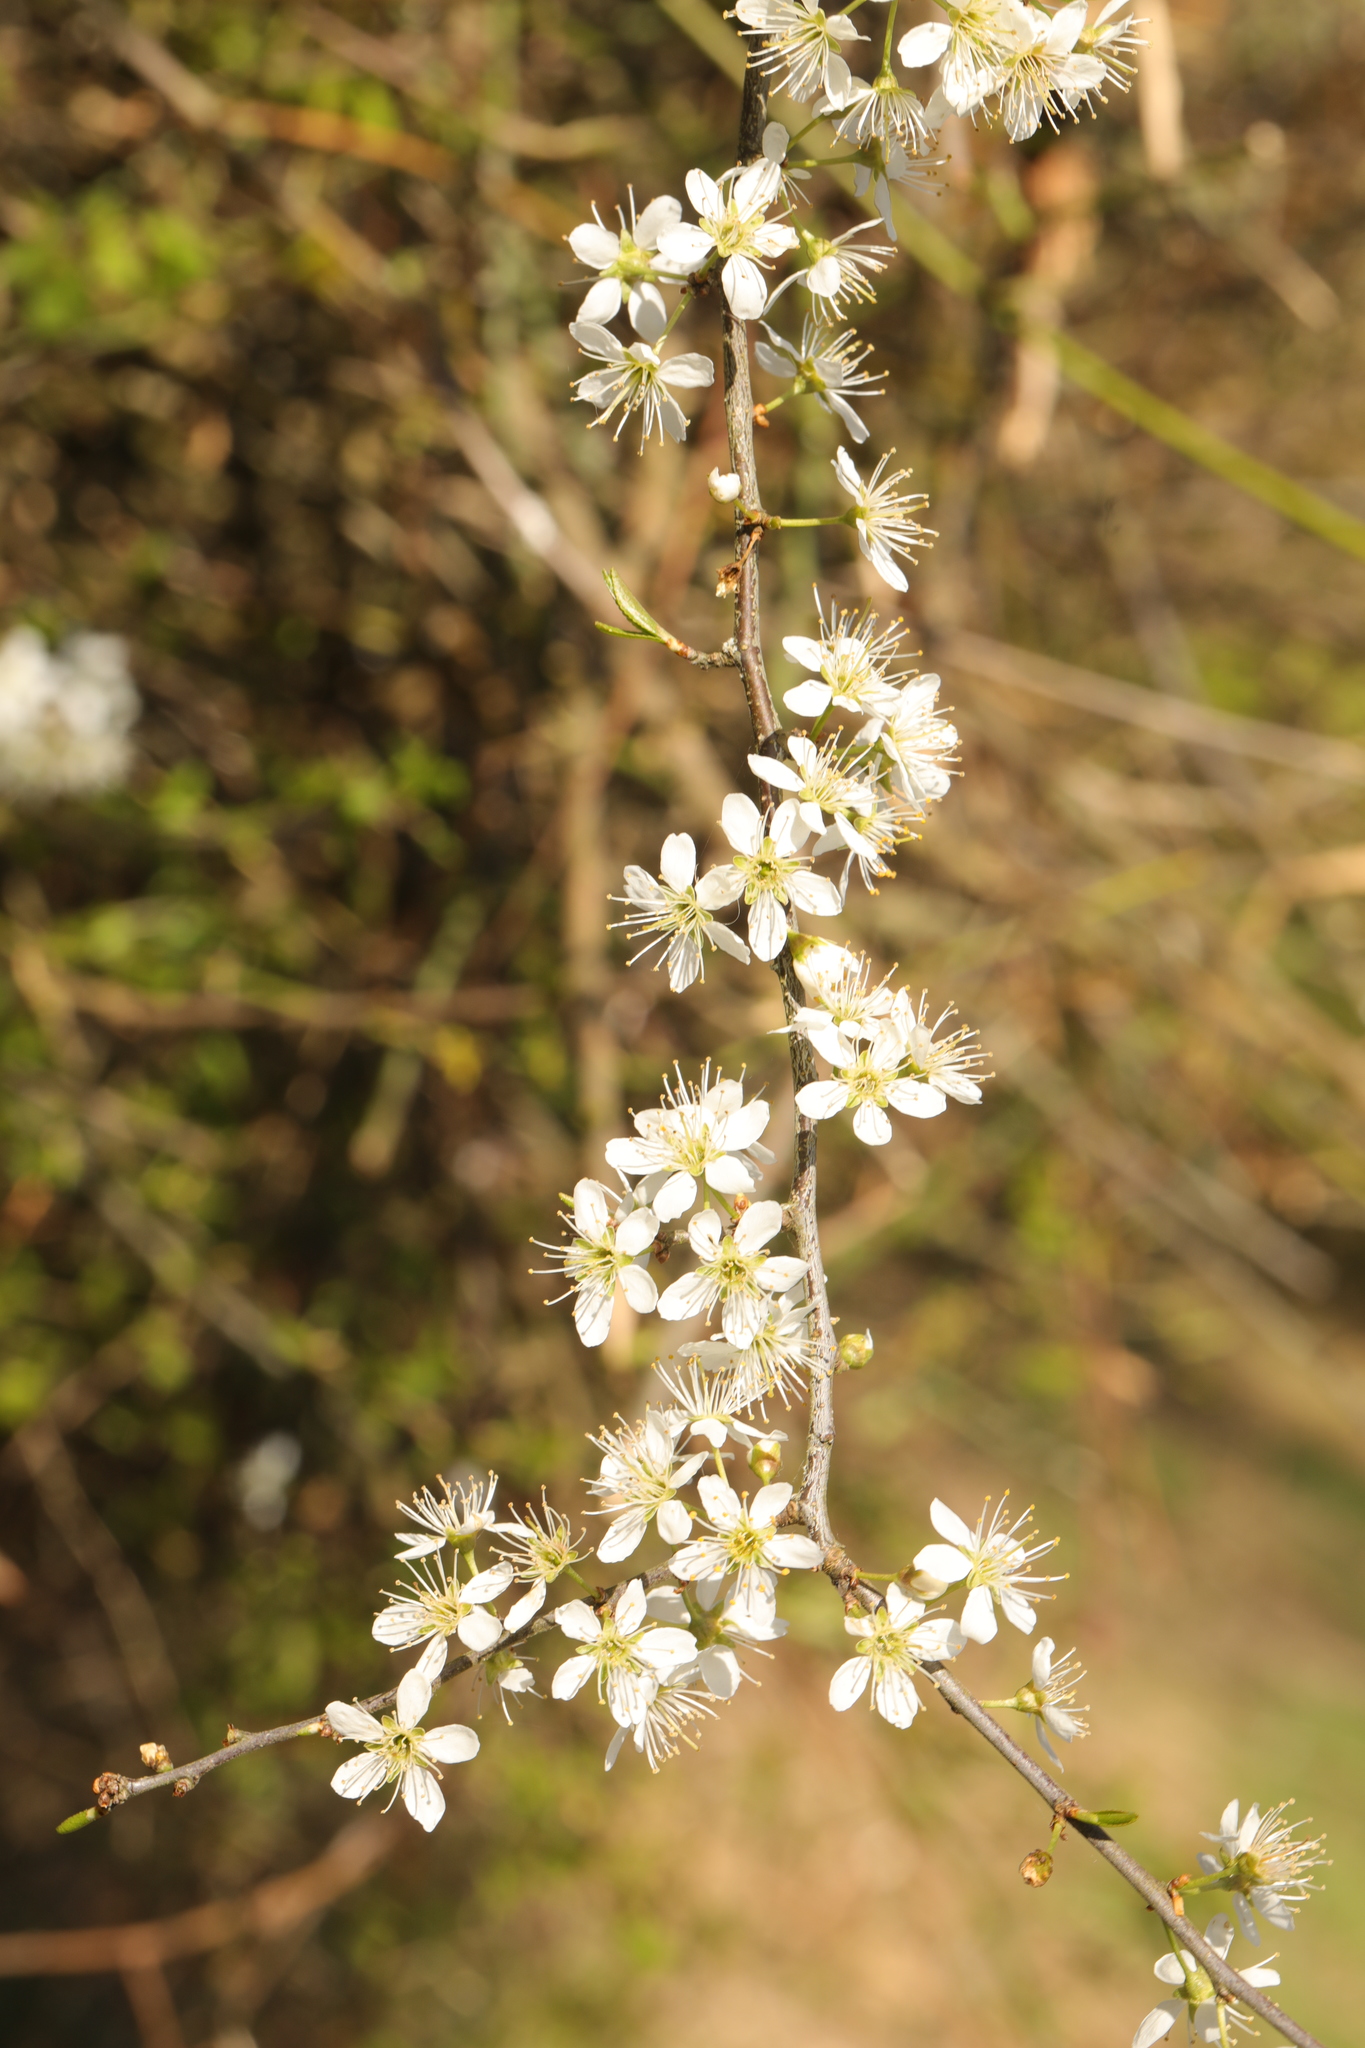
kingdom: Plantae
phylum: Tracheophyta
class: Magnoliopsida
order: Rosales
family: Rosaceae
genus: Prunus
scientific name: Prunus spinosa
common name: Blackthorn
